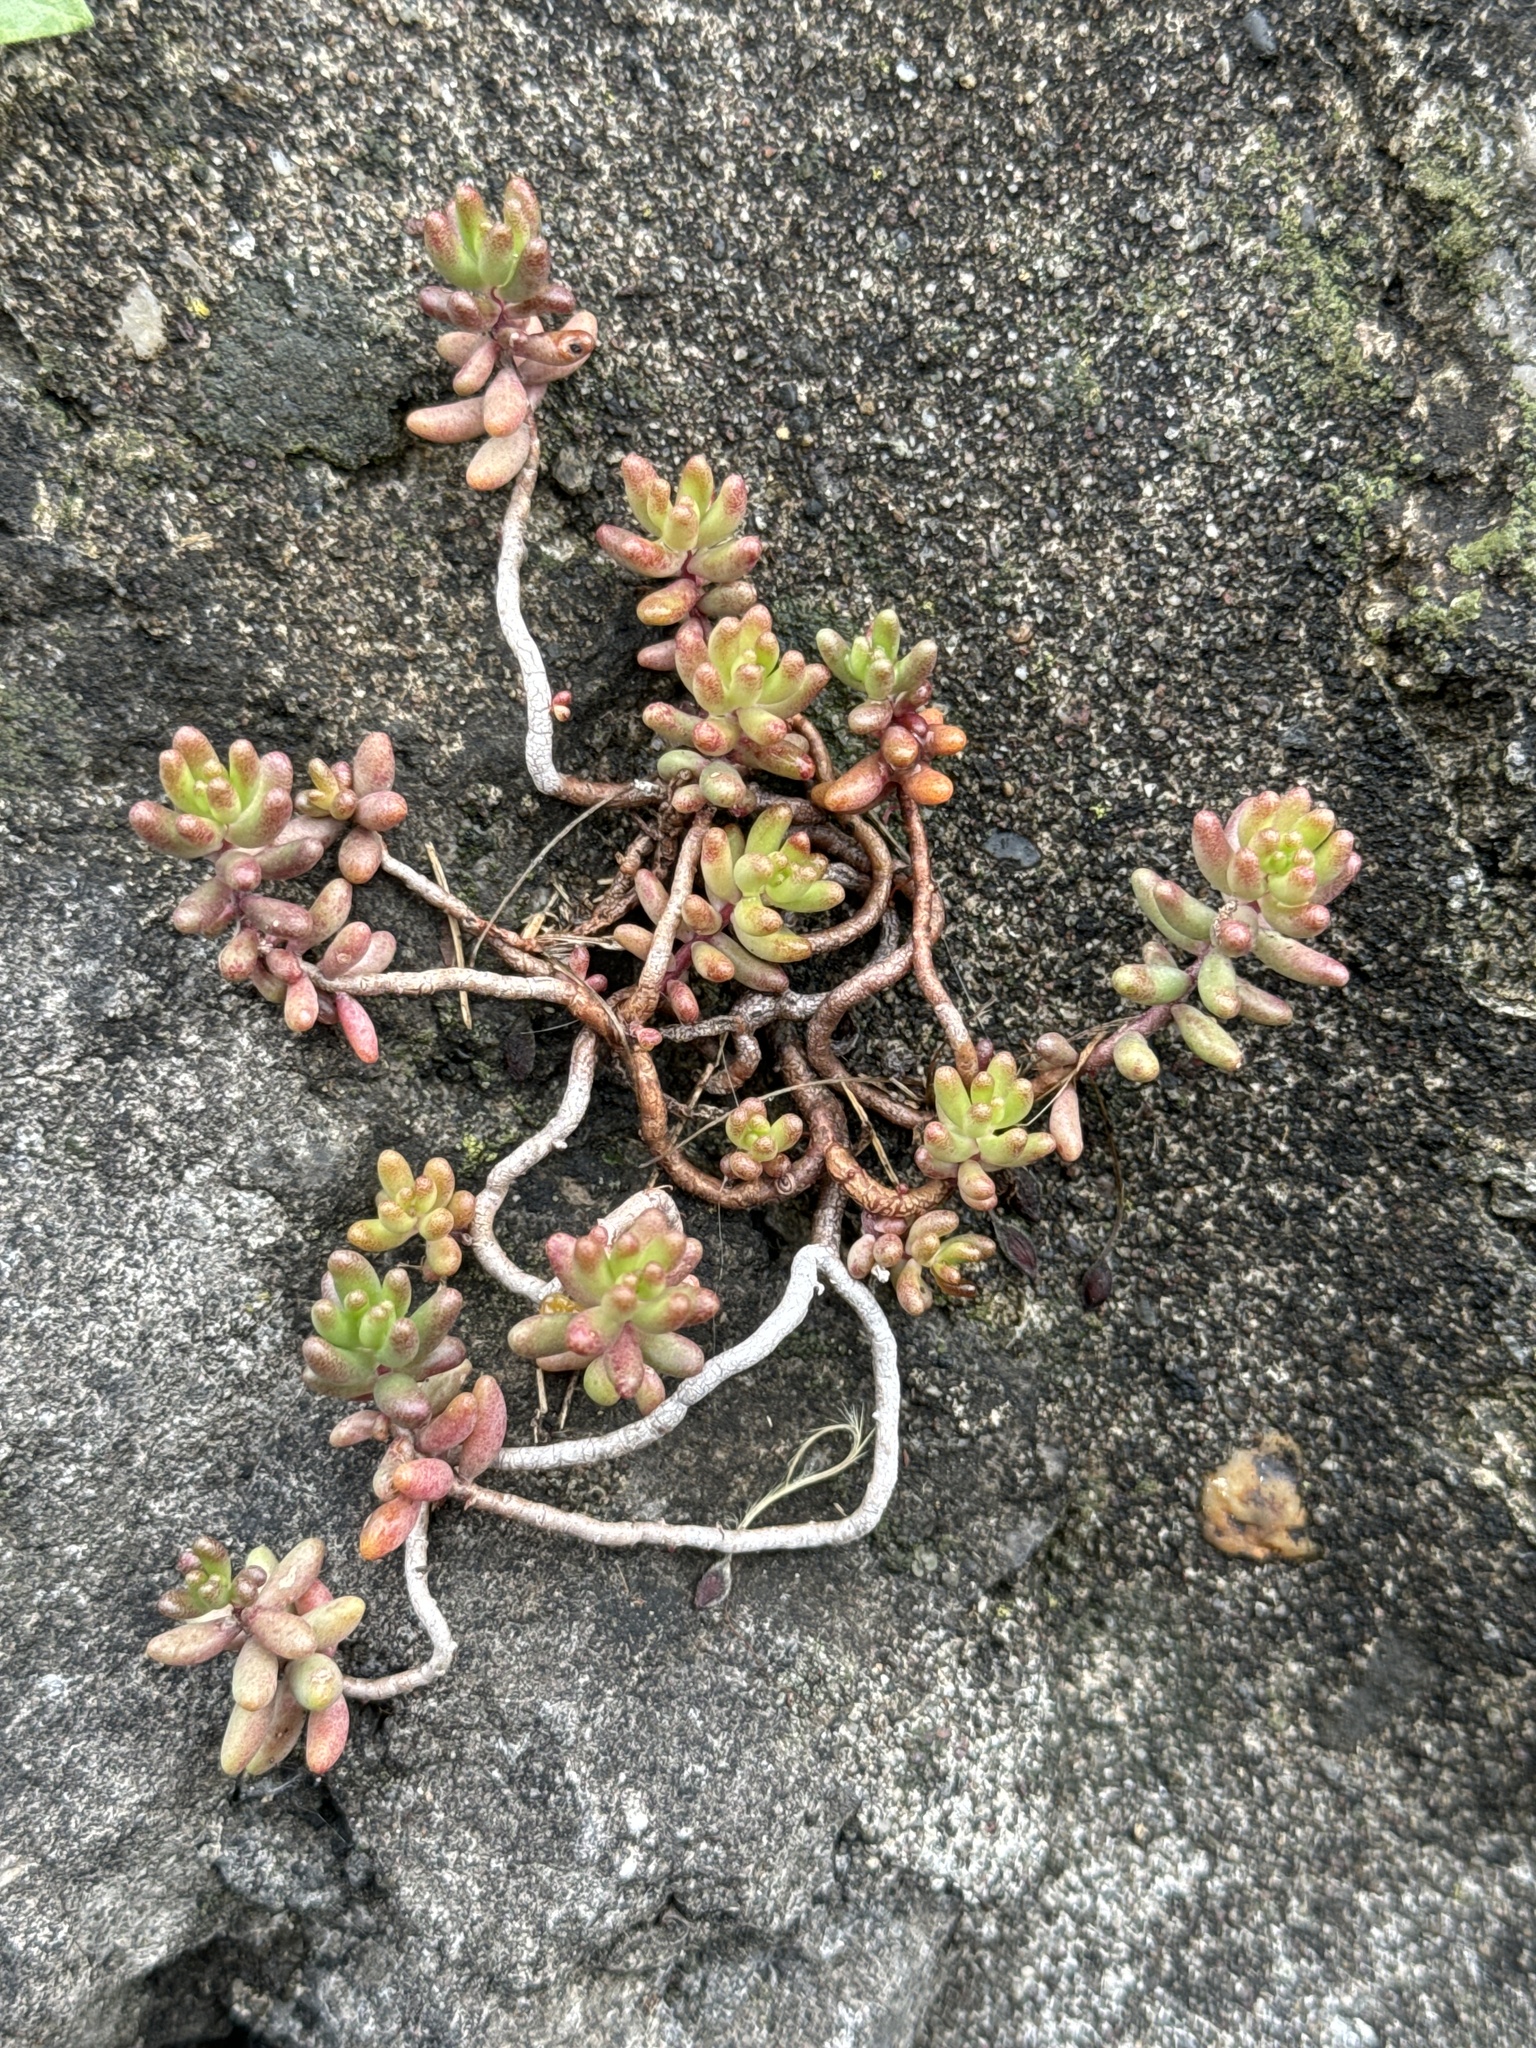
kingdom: Plantae
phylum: Tracheophyta
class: Magnoliopsida
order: Saxifragales
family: Crassulaceae
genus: Sedum
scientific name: Sedum album
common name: White stonecrop
